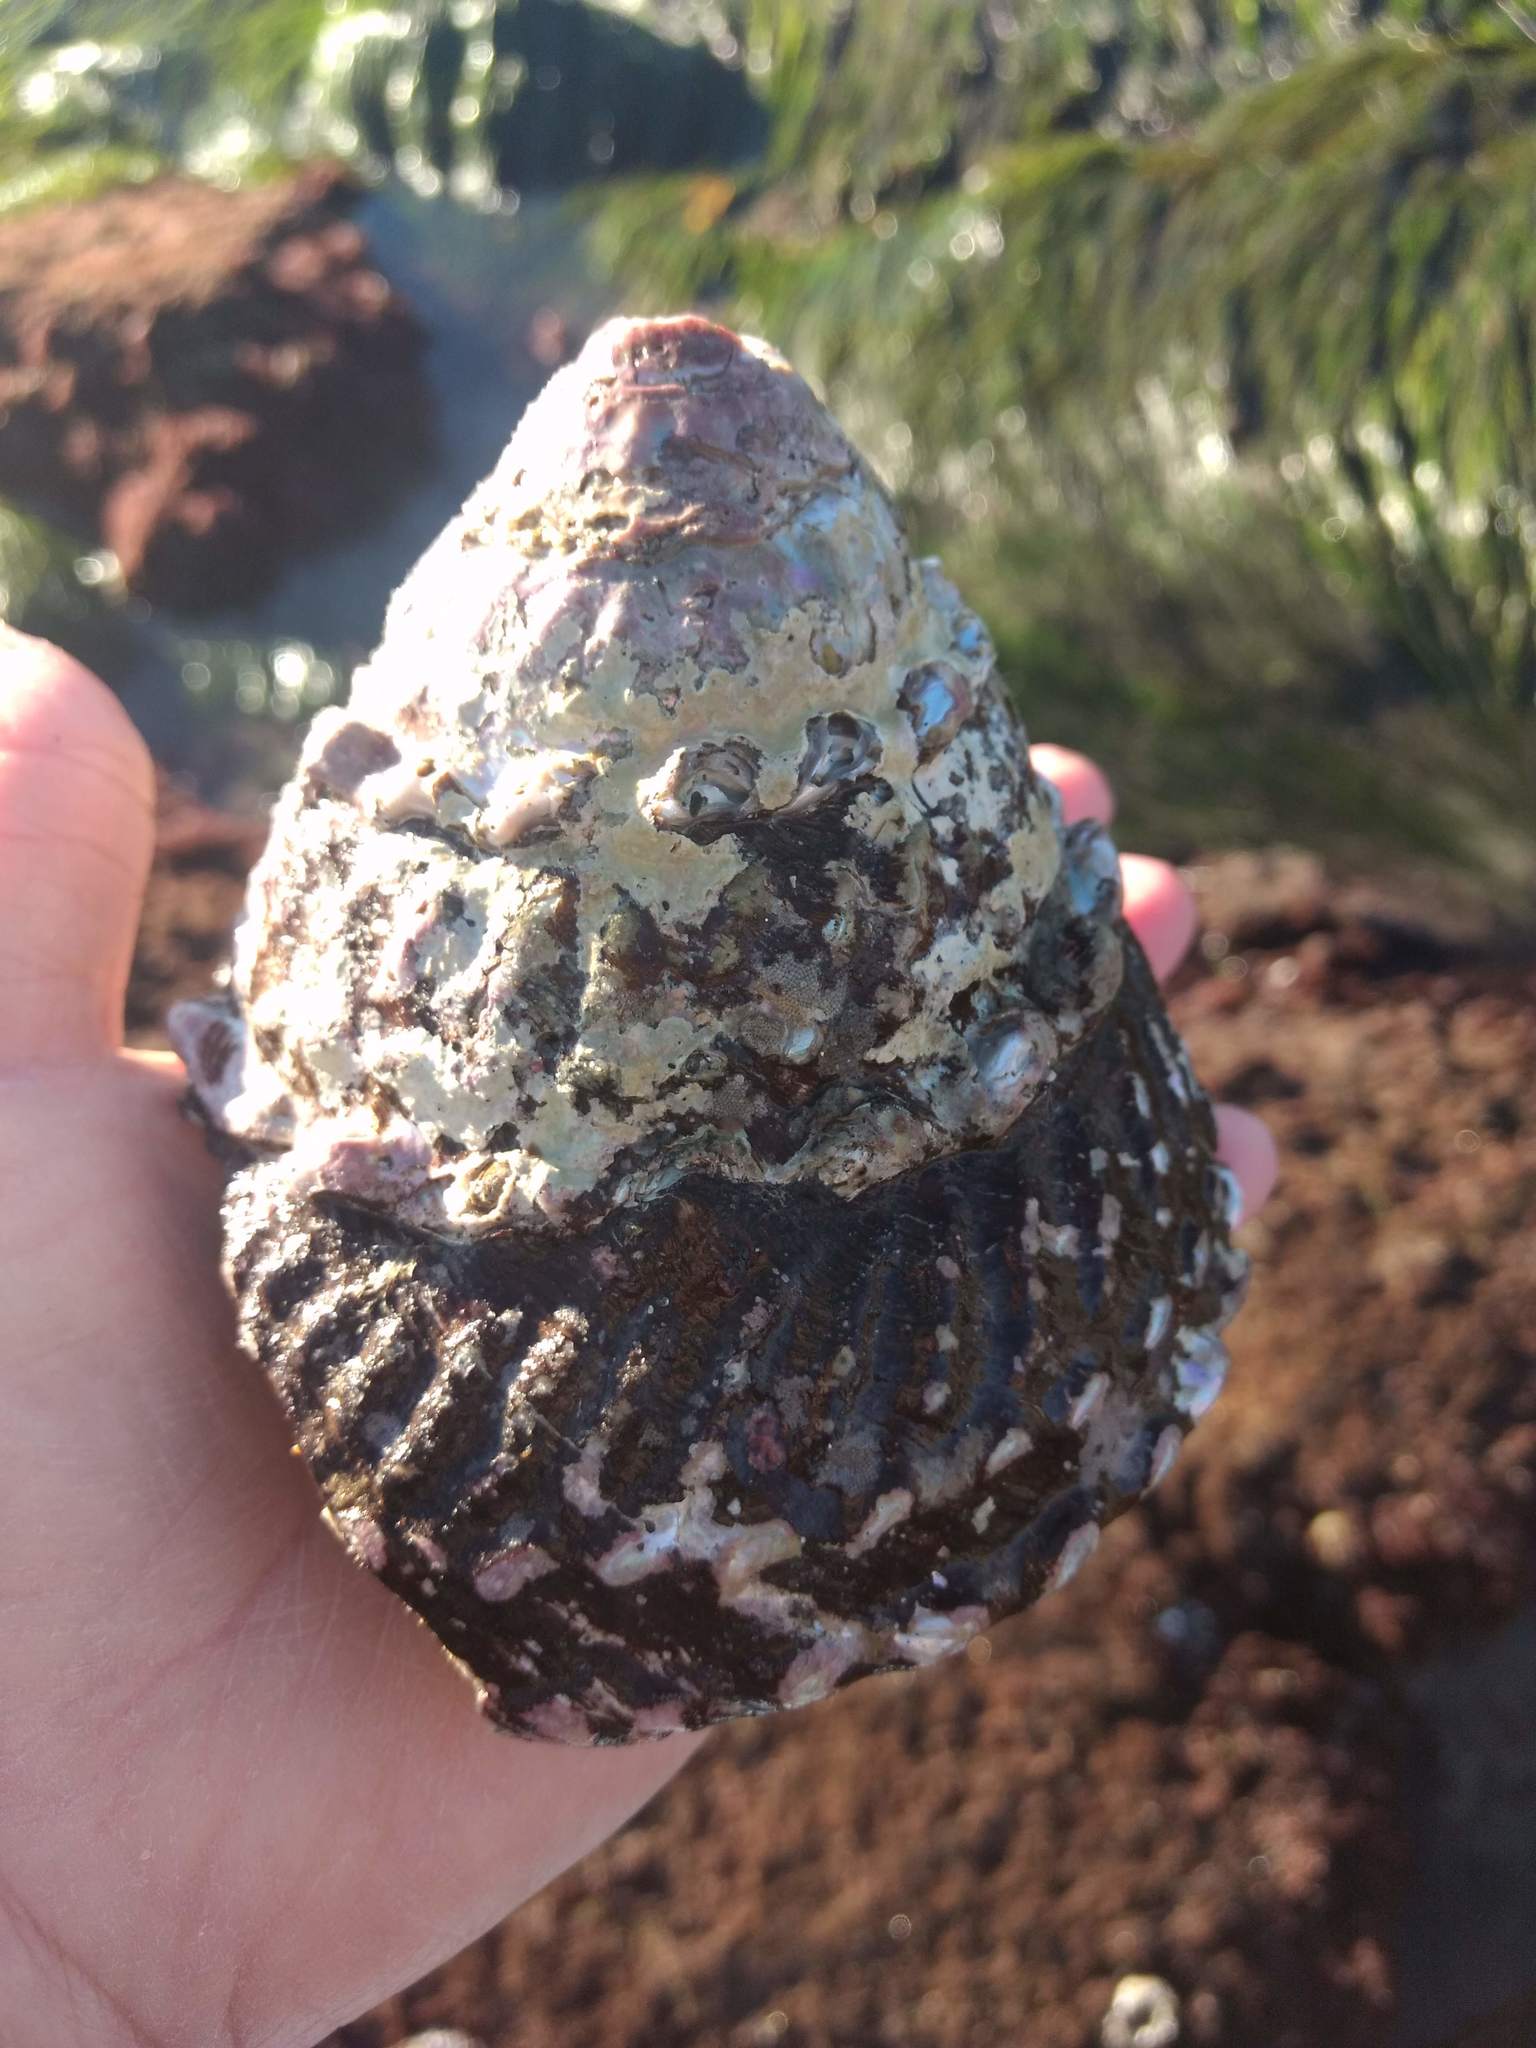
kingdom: Animalia
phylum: Mollusca
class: Gastropoda
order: Trochida
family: Turbinidae
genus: Megastraea
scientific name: Megastraea undosa
